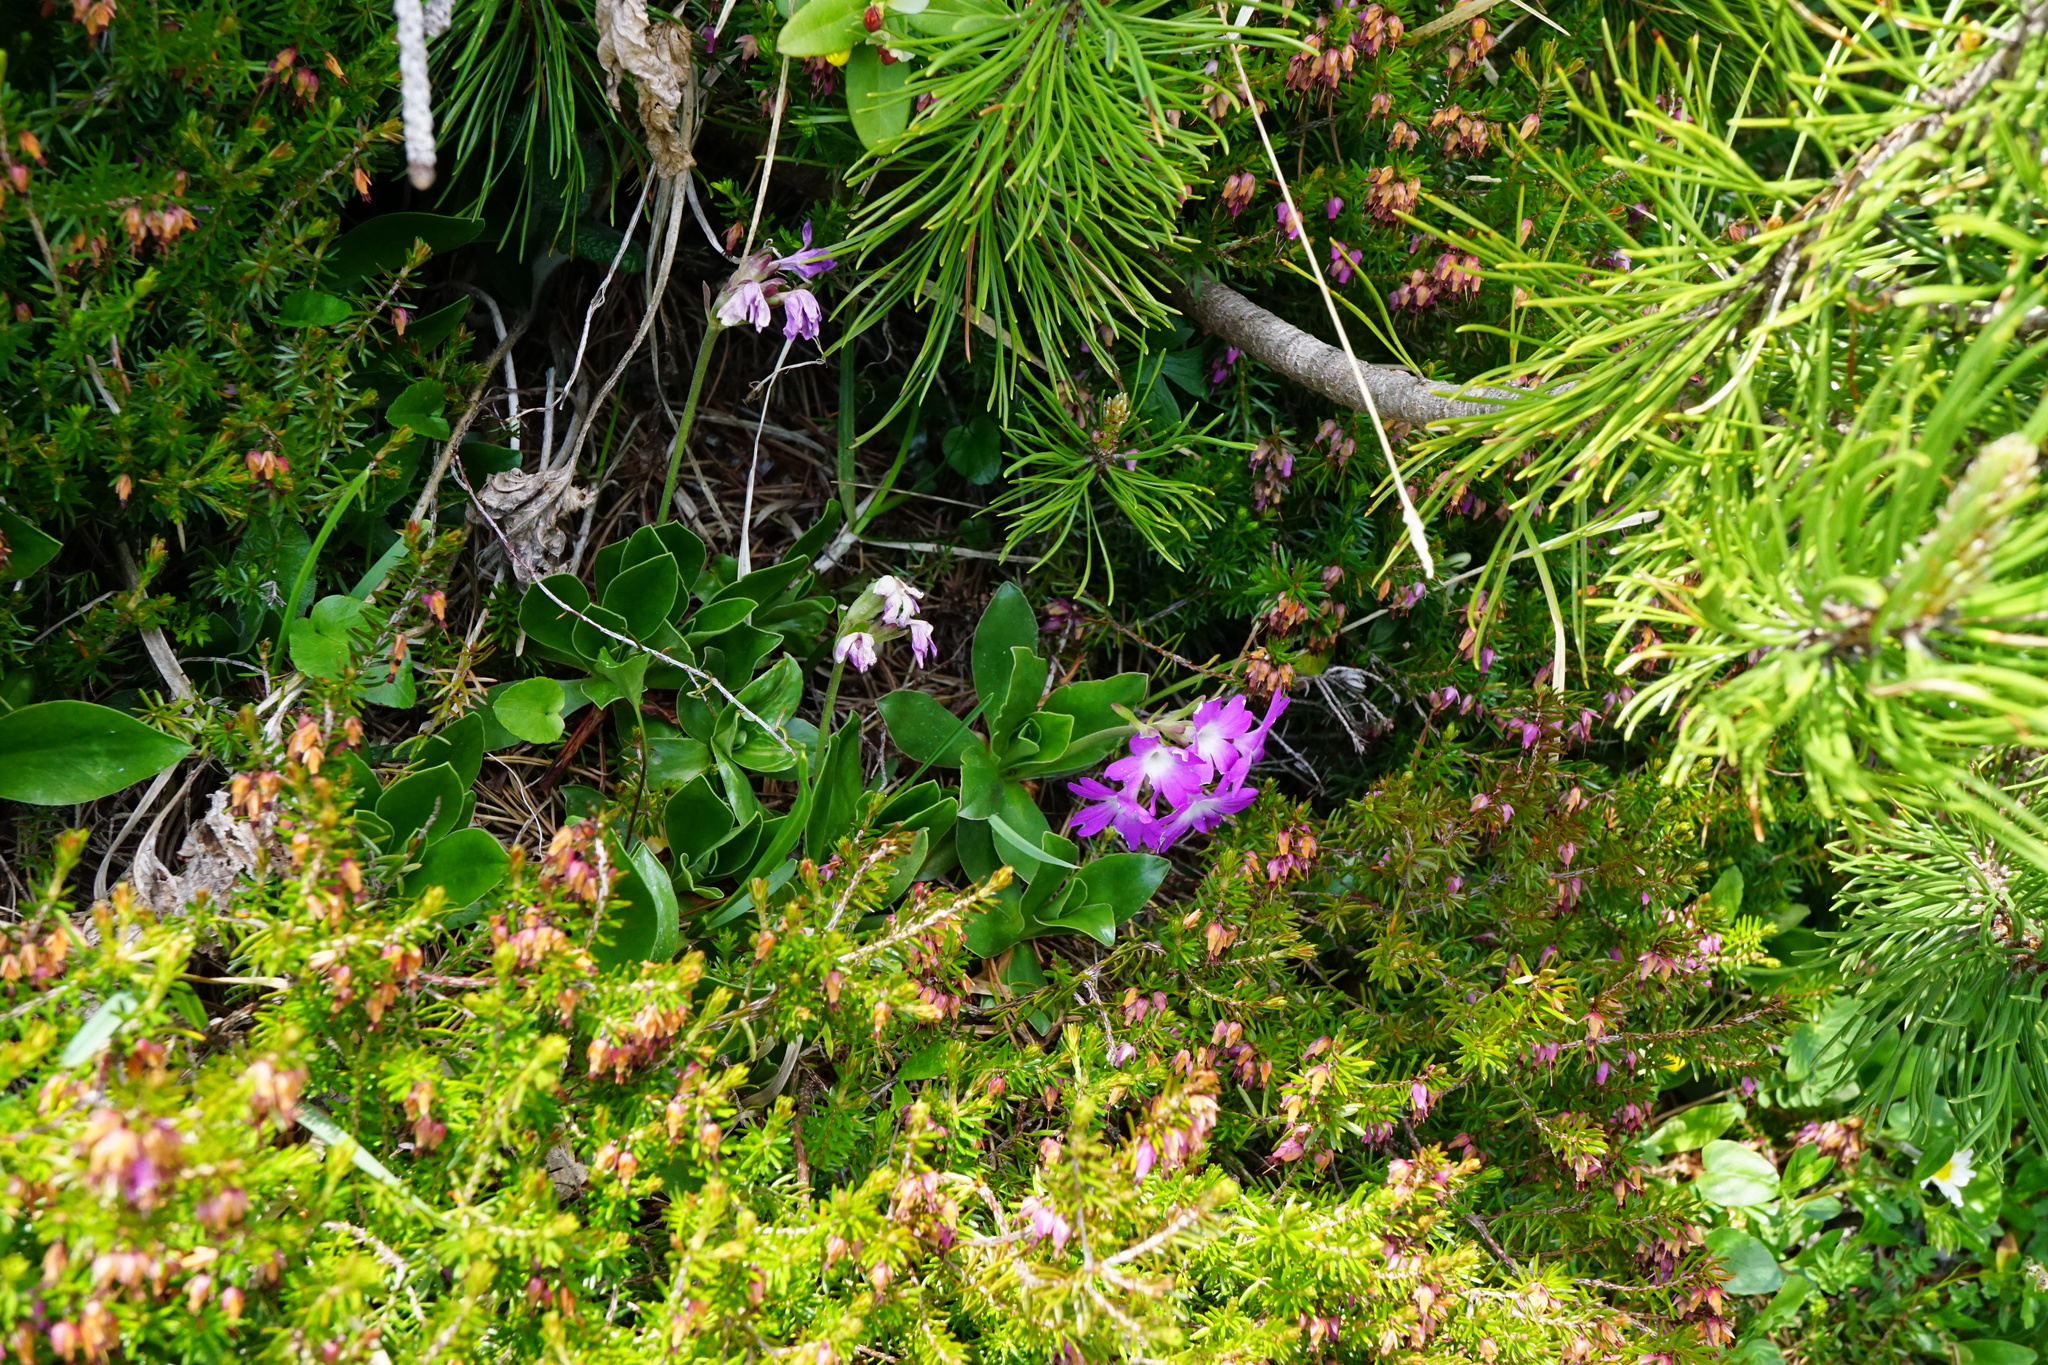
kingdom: Plantae
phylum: Tracheophyta
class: Magnoliopsida
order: Ericales
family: Primulaceae
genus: Primula
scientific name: Primula clusiana
